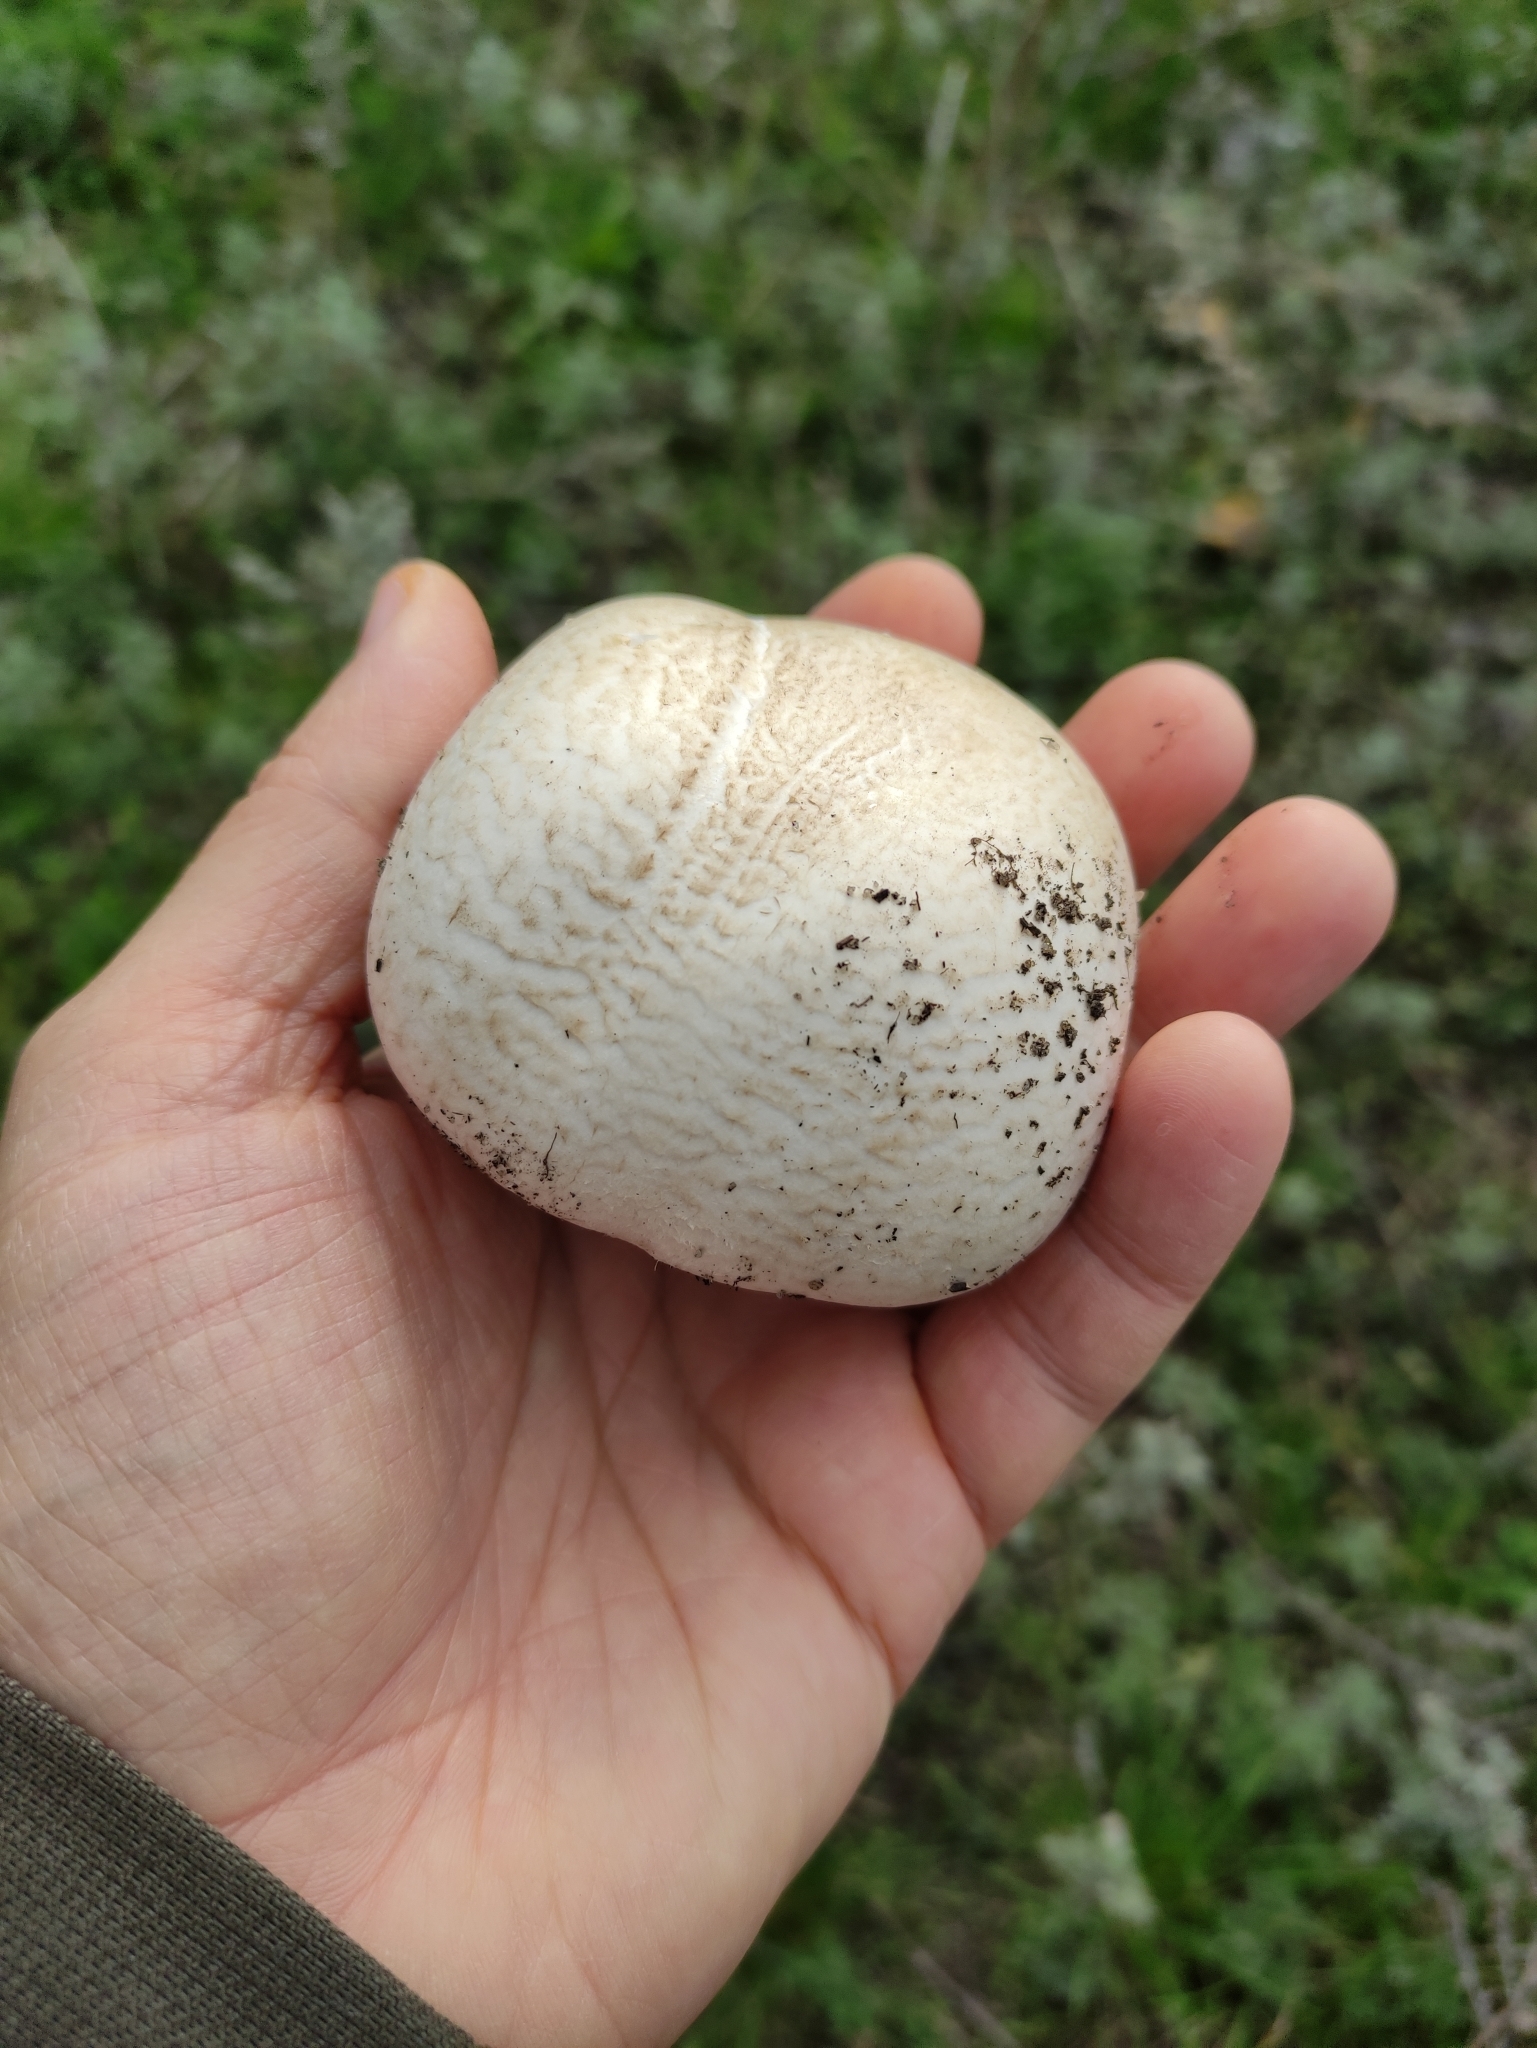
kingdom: Fungi
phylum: Basidiomycota
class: Agaricomycetes
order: Agaricales
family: Agaricaceae
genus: Agaricus
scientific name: Agaricus campestris
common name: Field mushroom
